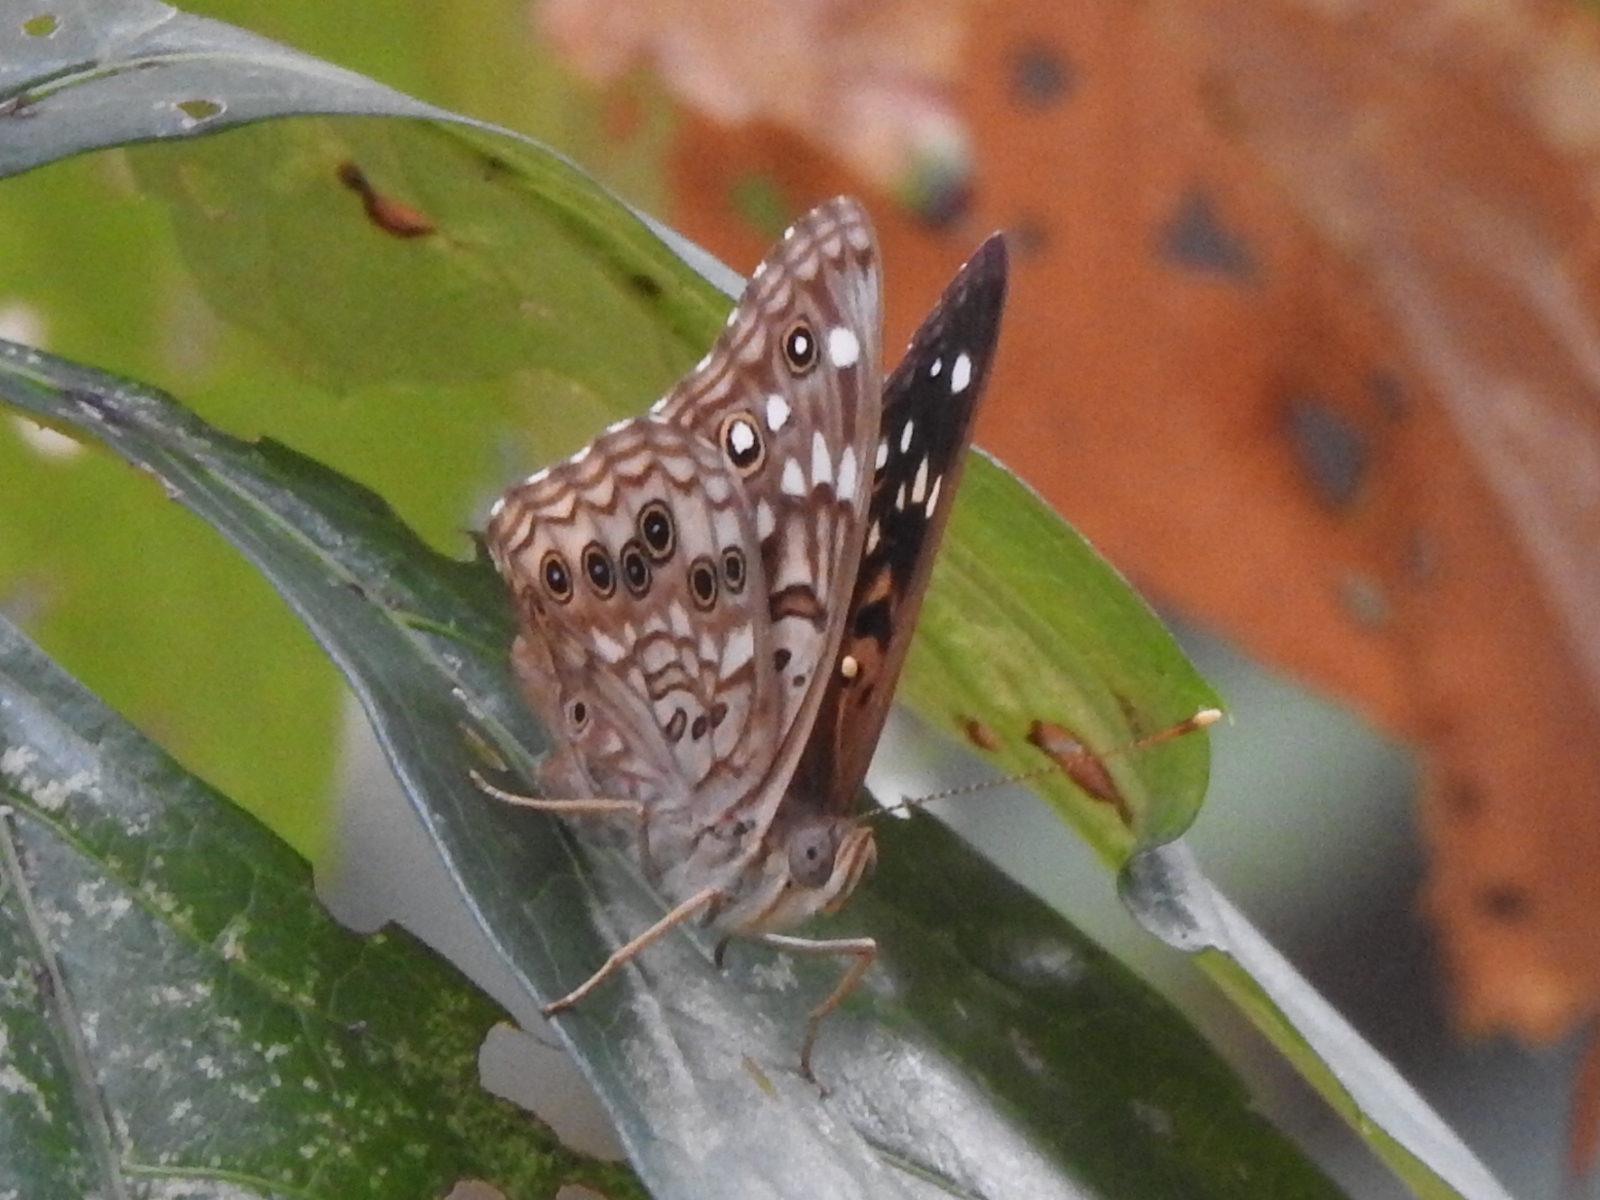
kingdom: Animalia
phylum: Arthropoda
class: Insecta
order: Lepidoptera
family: Nymphalidae
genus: Asterocampa
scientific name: Asterocampa celtis
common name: Hackberry emperor
